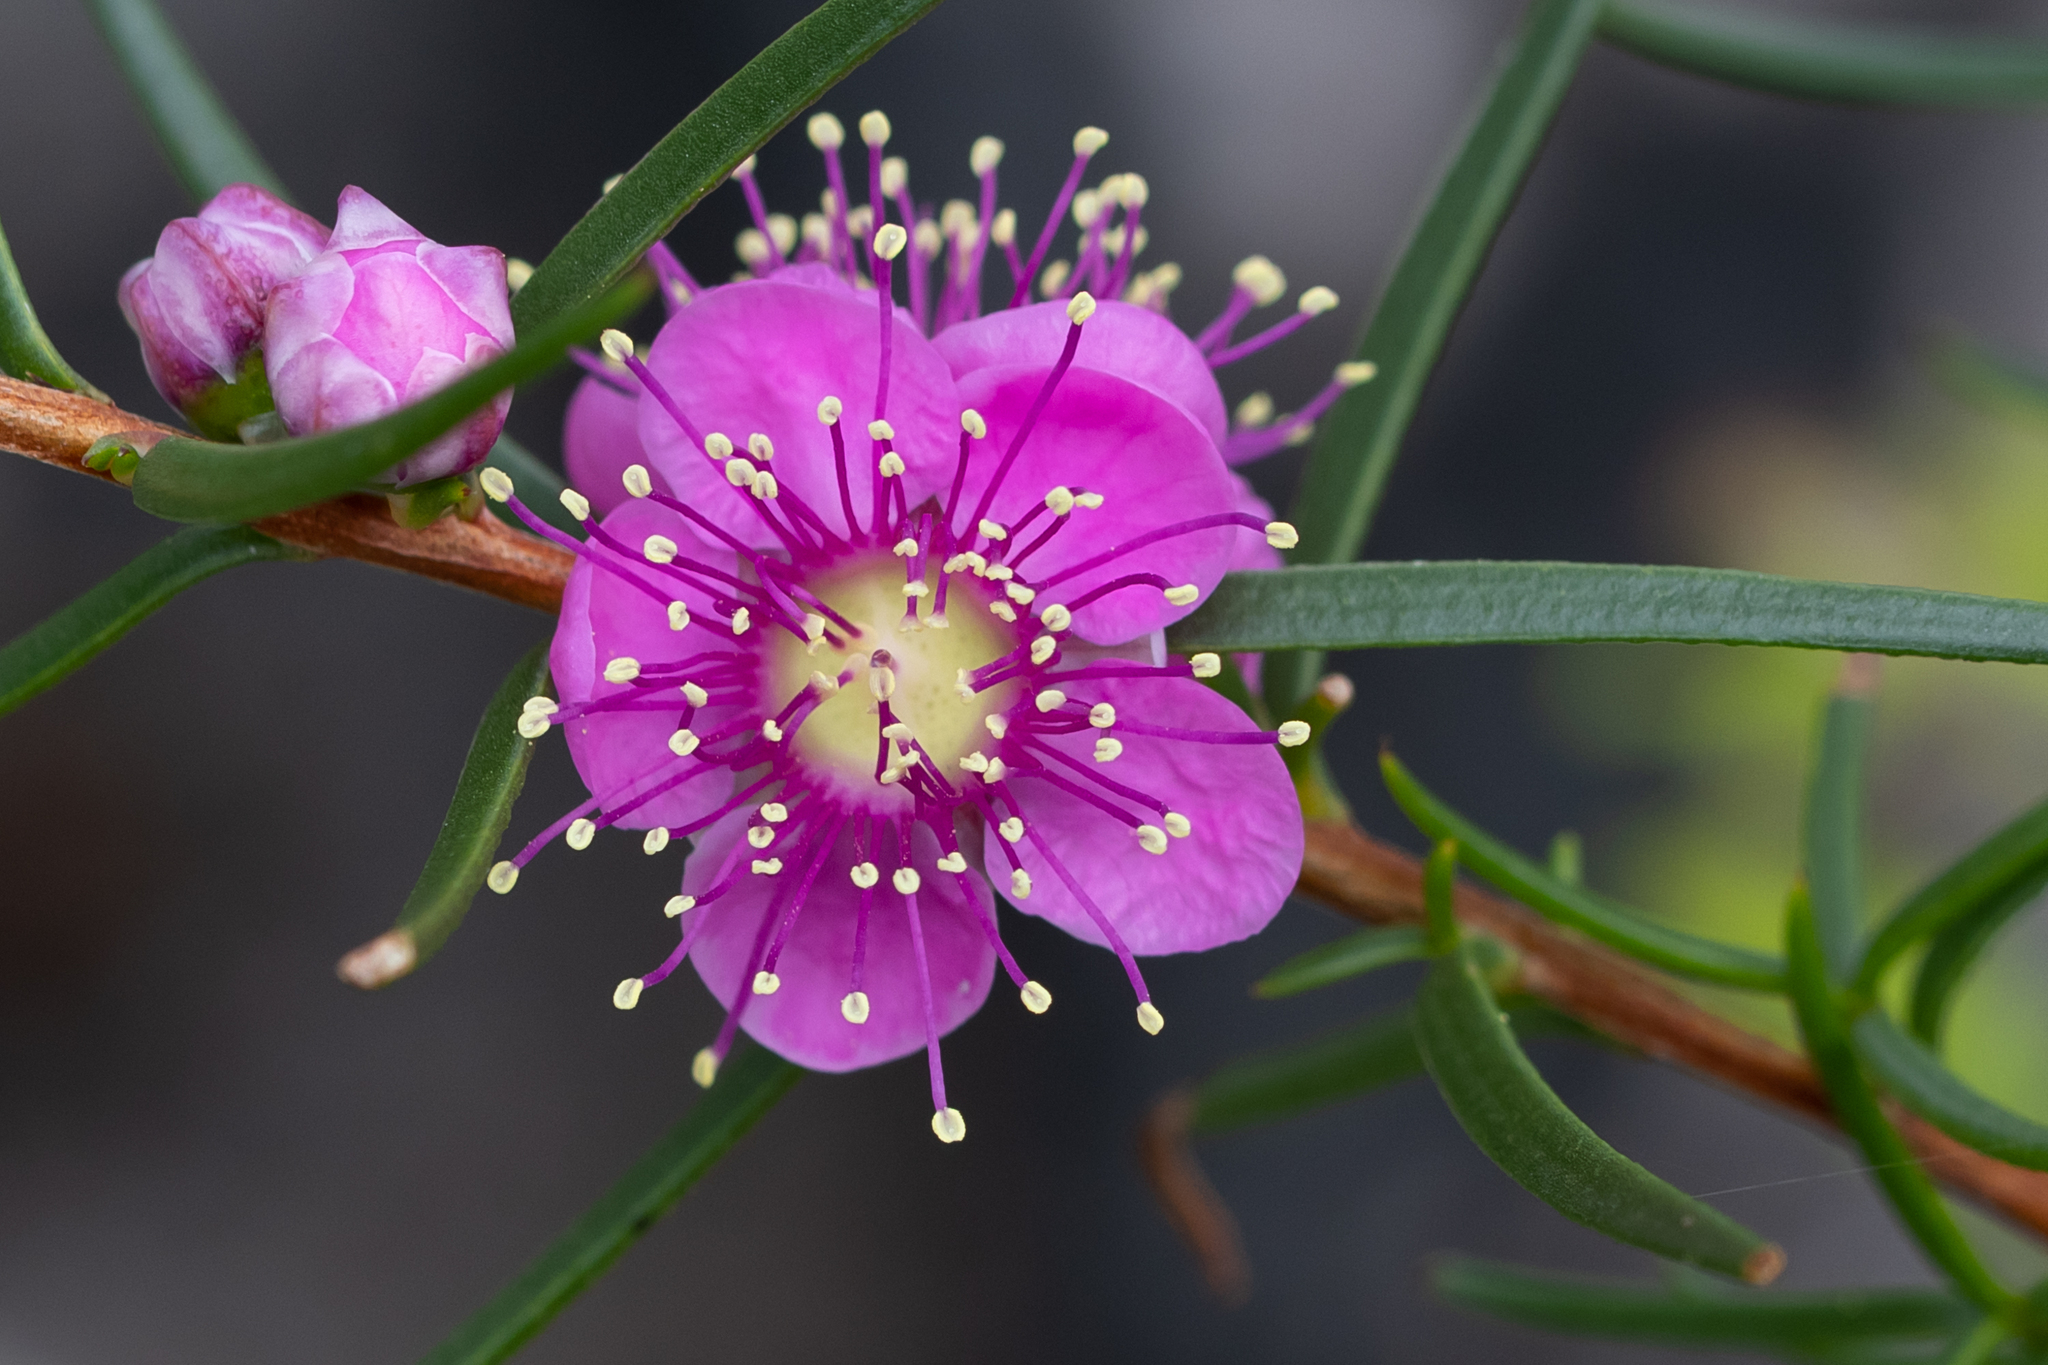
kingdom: Plantae
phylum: Tracheophyta
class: Magnoliopsida
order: Myrtales
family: Myrtaceae
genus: Hypocalymma
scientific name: Hypocalymma robustum
